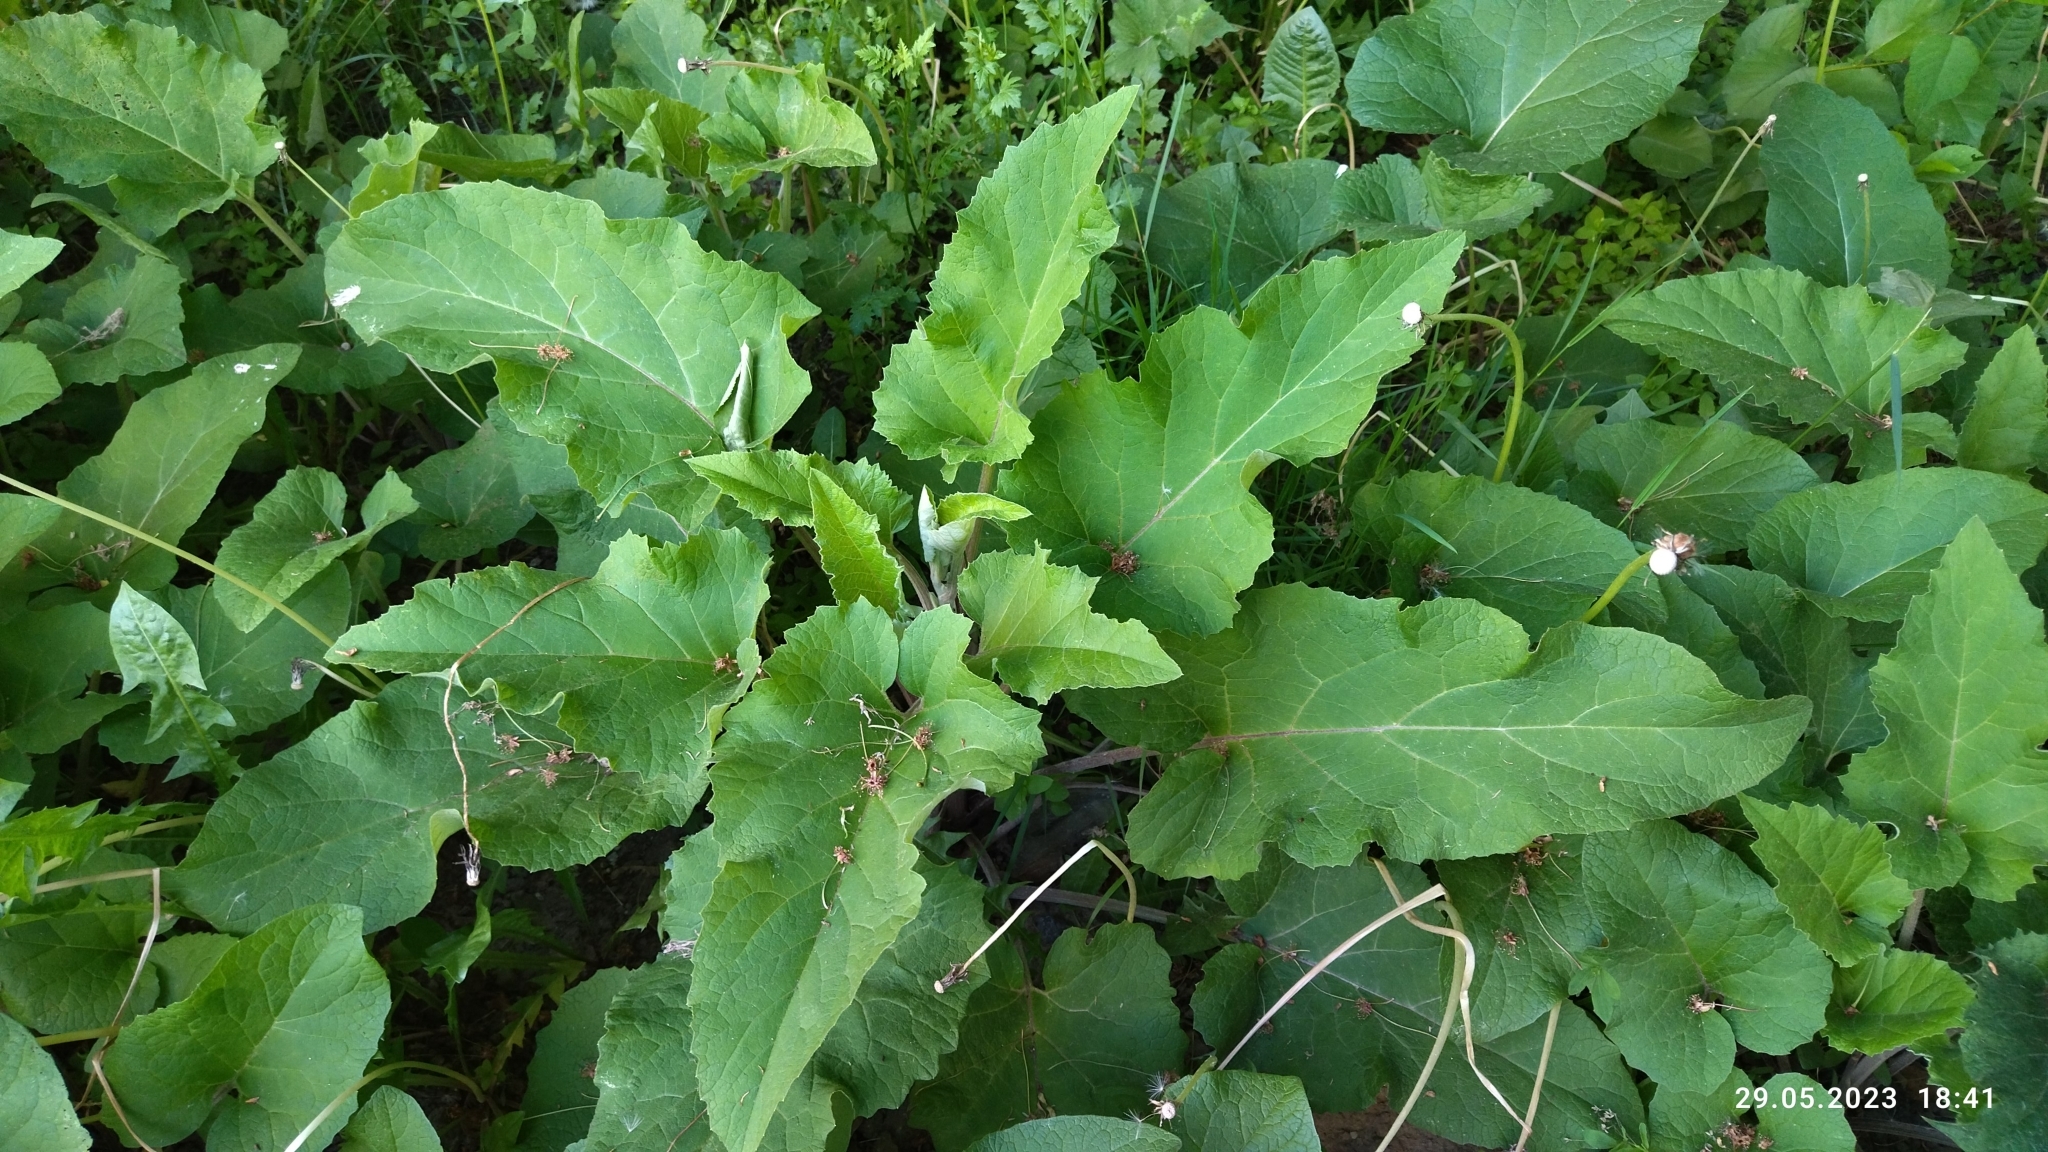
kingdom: Plantae
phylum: Tracheophyta
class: Magnoliopsida
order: Asterales
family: Asteraceae
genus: Arctium
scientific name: Arctium
